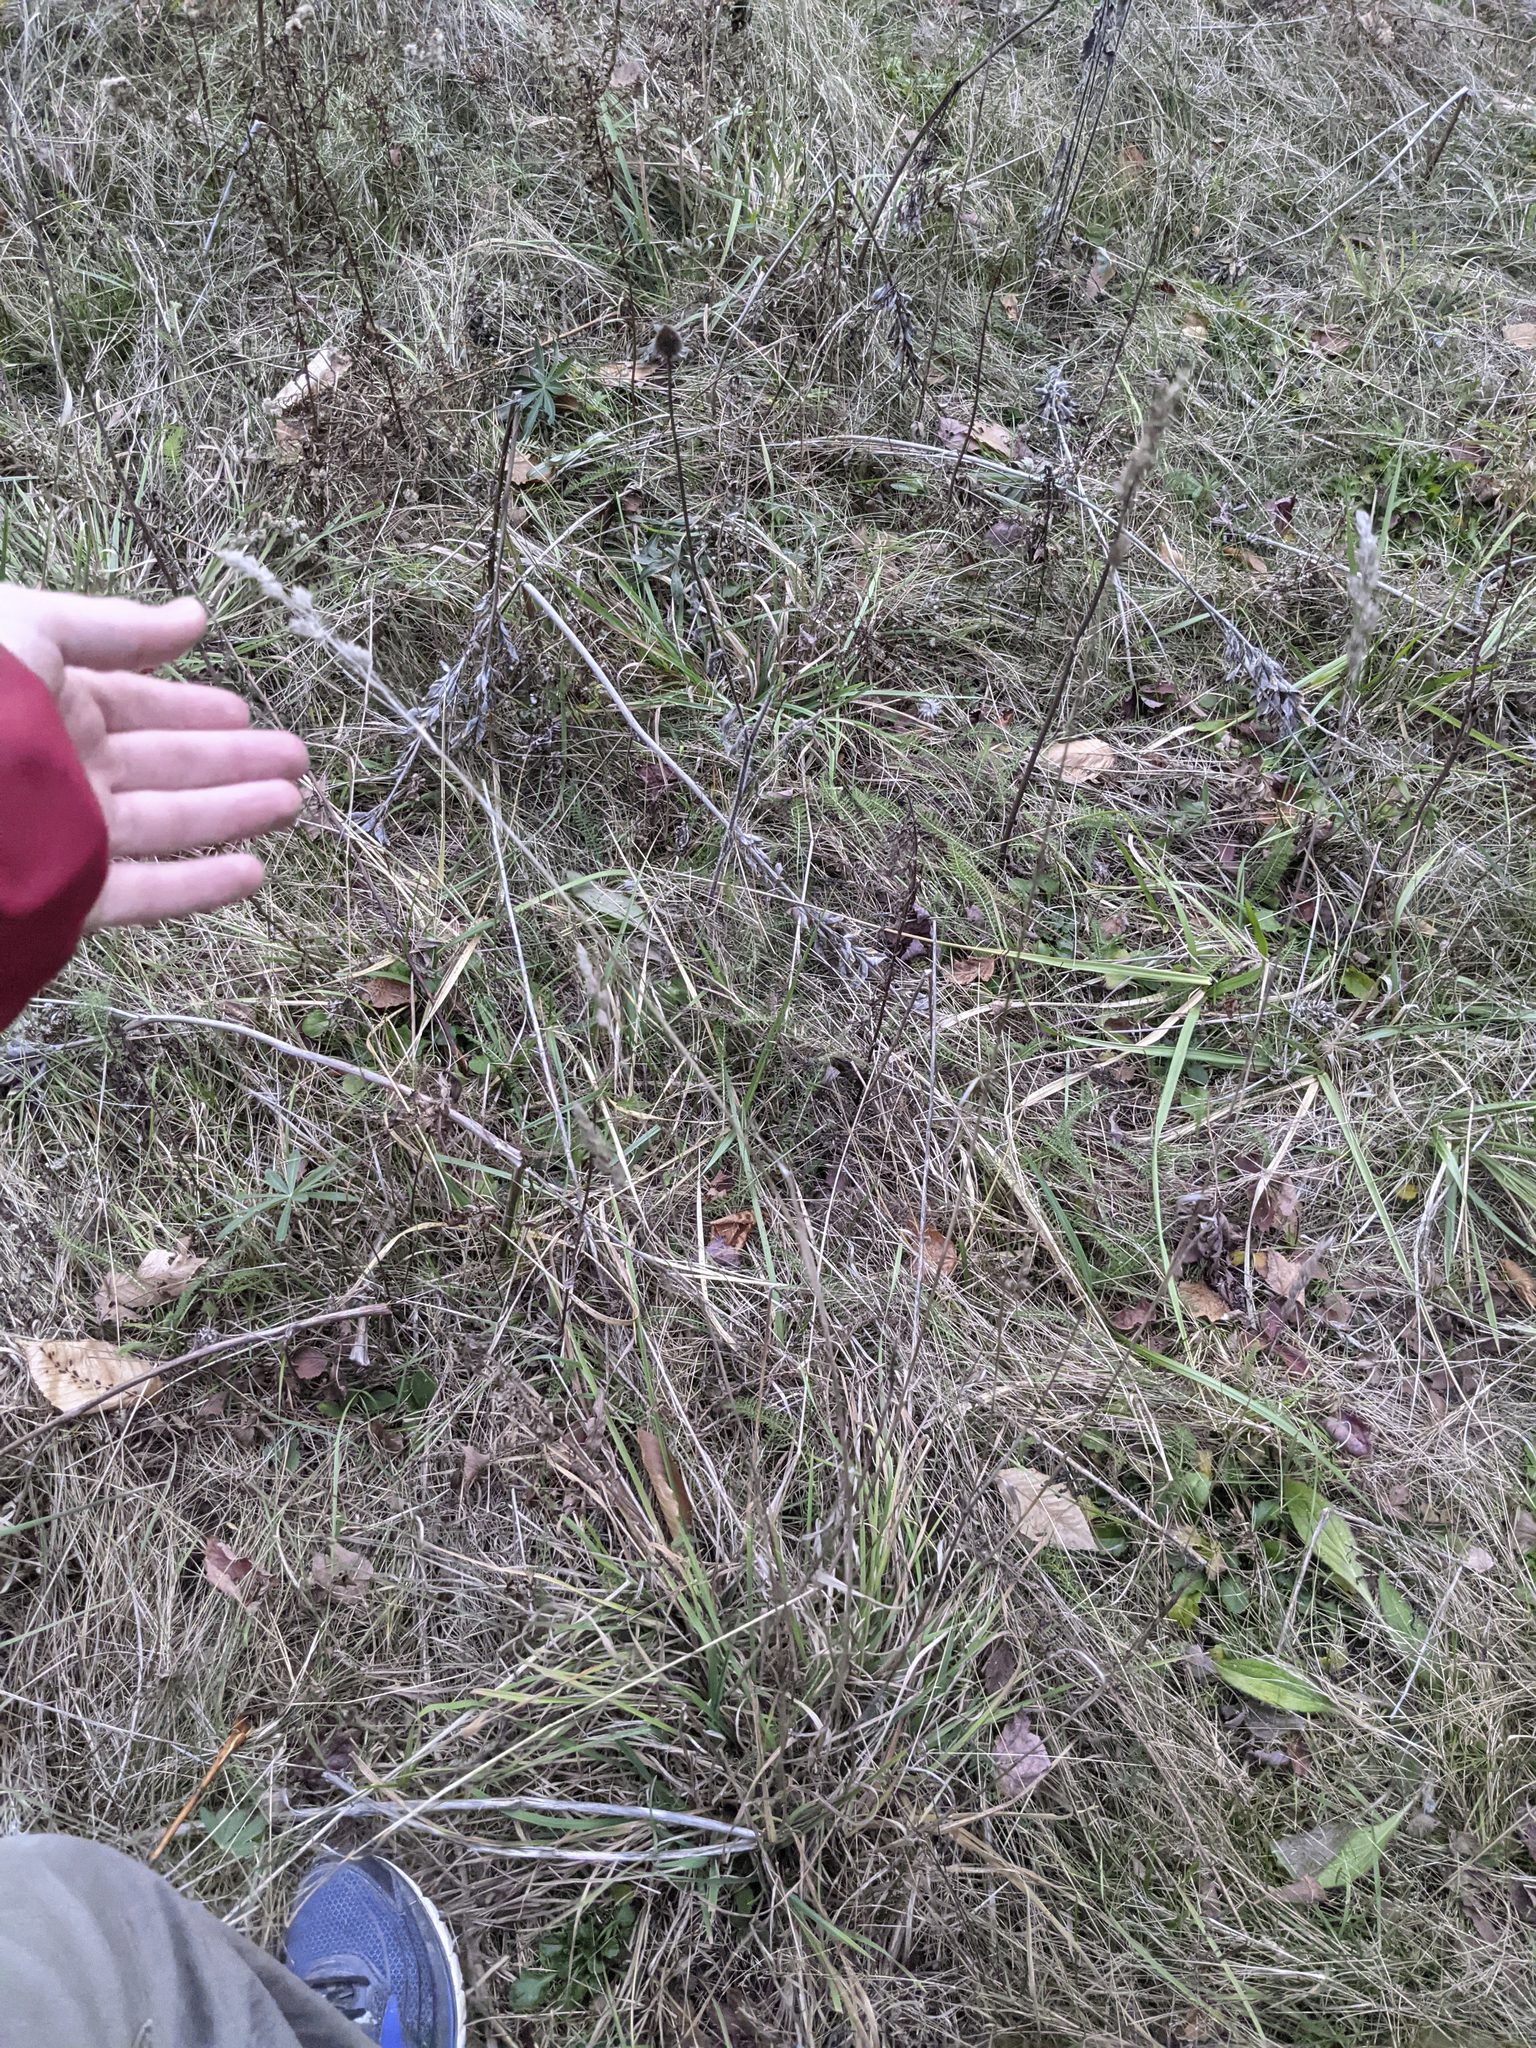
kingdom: Plantae
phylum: Tracheophyta
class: Liliopsida
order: Poales
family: Poaceae
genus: Dactylis
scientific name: Dactylis glomerata
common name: Orchardgrass
